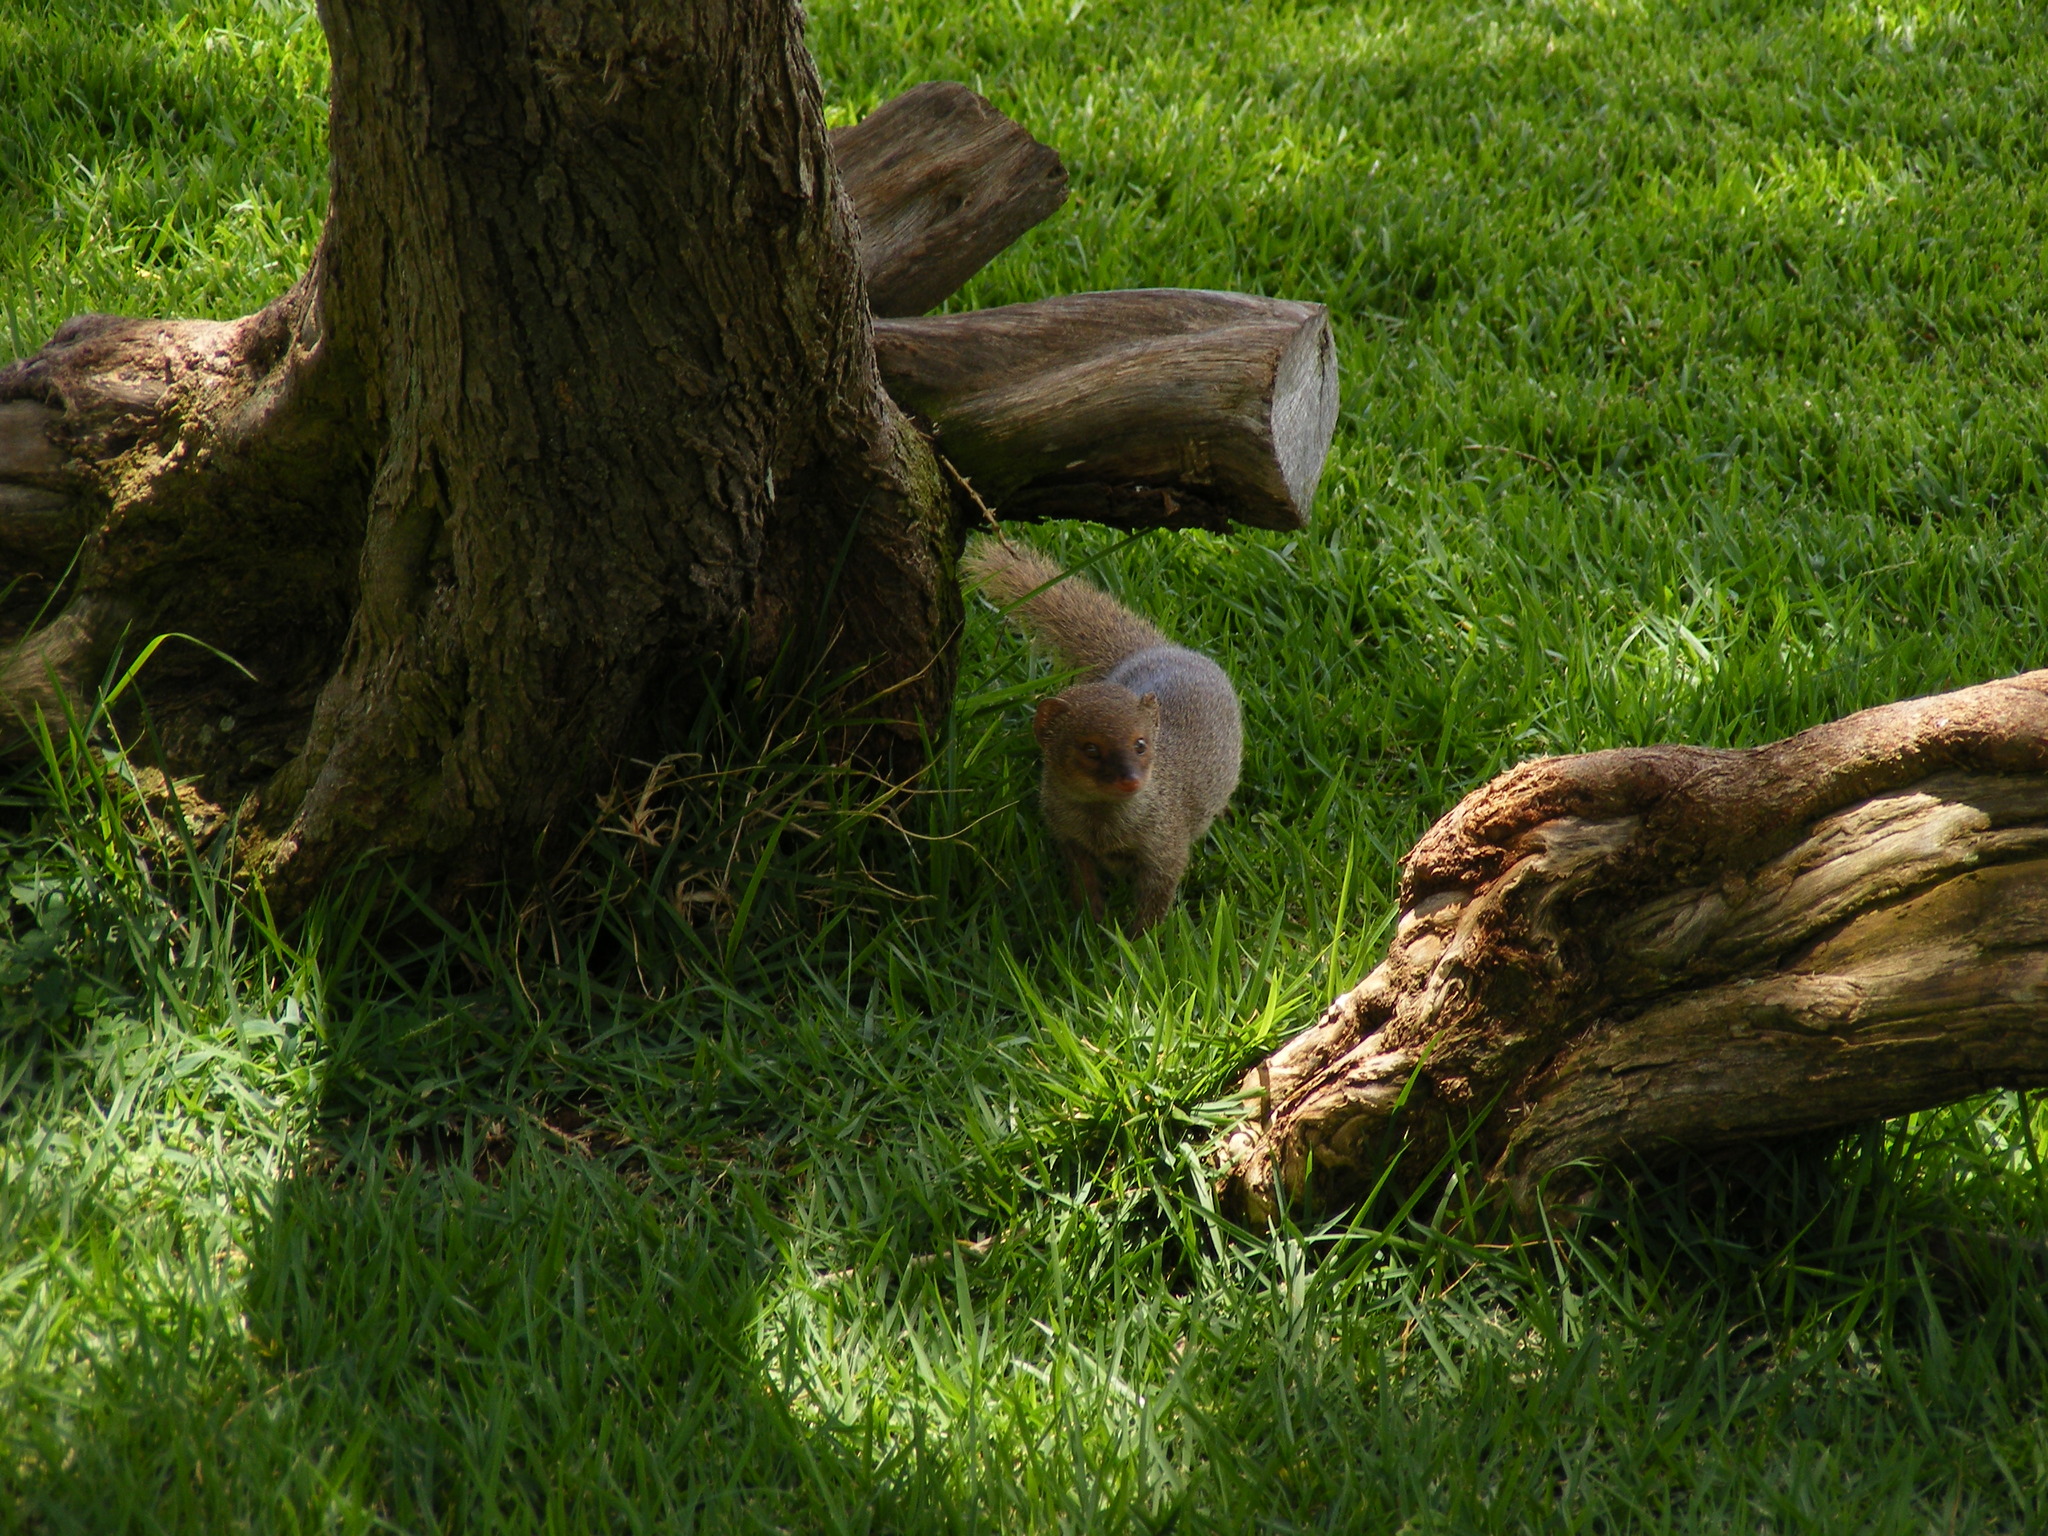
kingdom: Animalia
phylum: Chordata
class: Mammalia
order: Carnivora
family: Herpestidae
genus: Herpestes
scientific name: Herpestes javanicus
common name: Small asian mongoose
